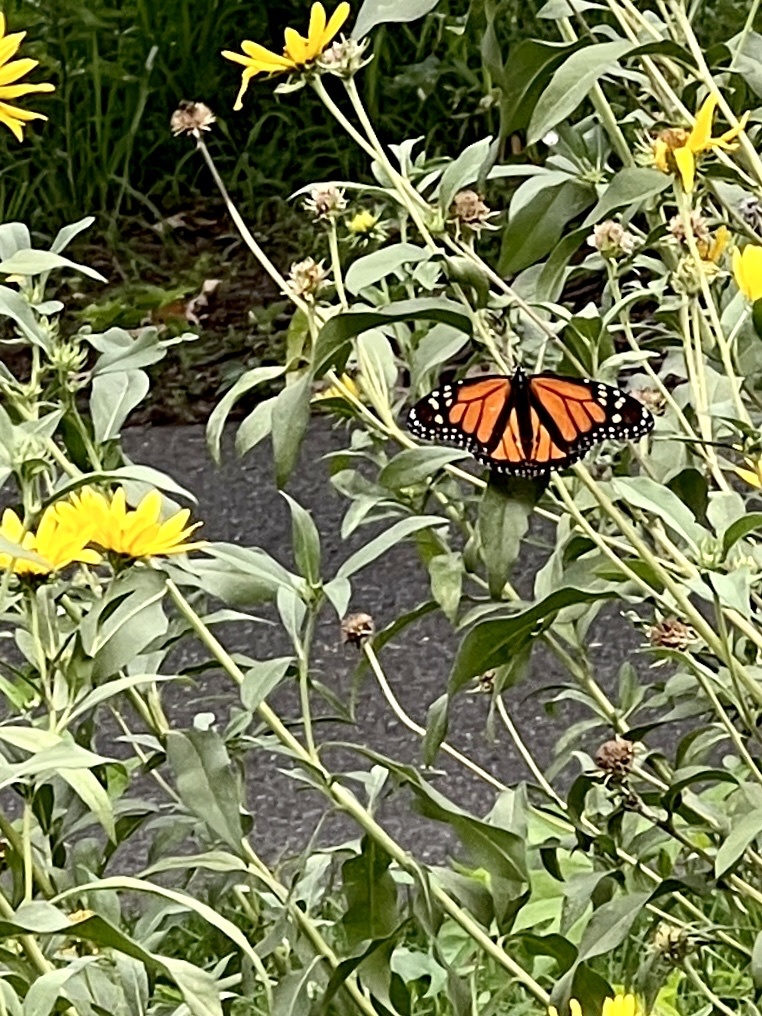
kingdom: Animalia
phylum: Arthropoda
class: Insecta
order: Lepidoptera
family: Nymphalidae
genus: Danaus
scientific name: Danaus plexippus
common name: Monarch
